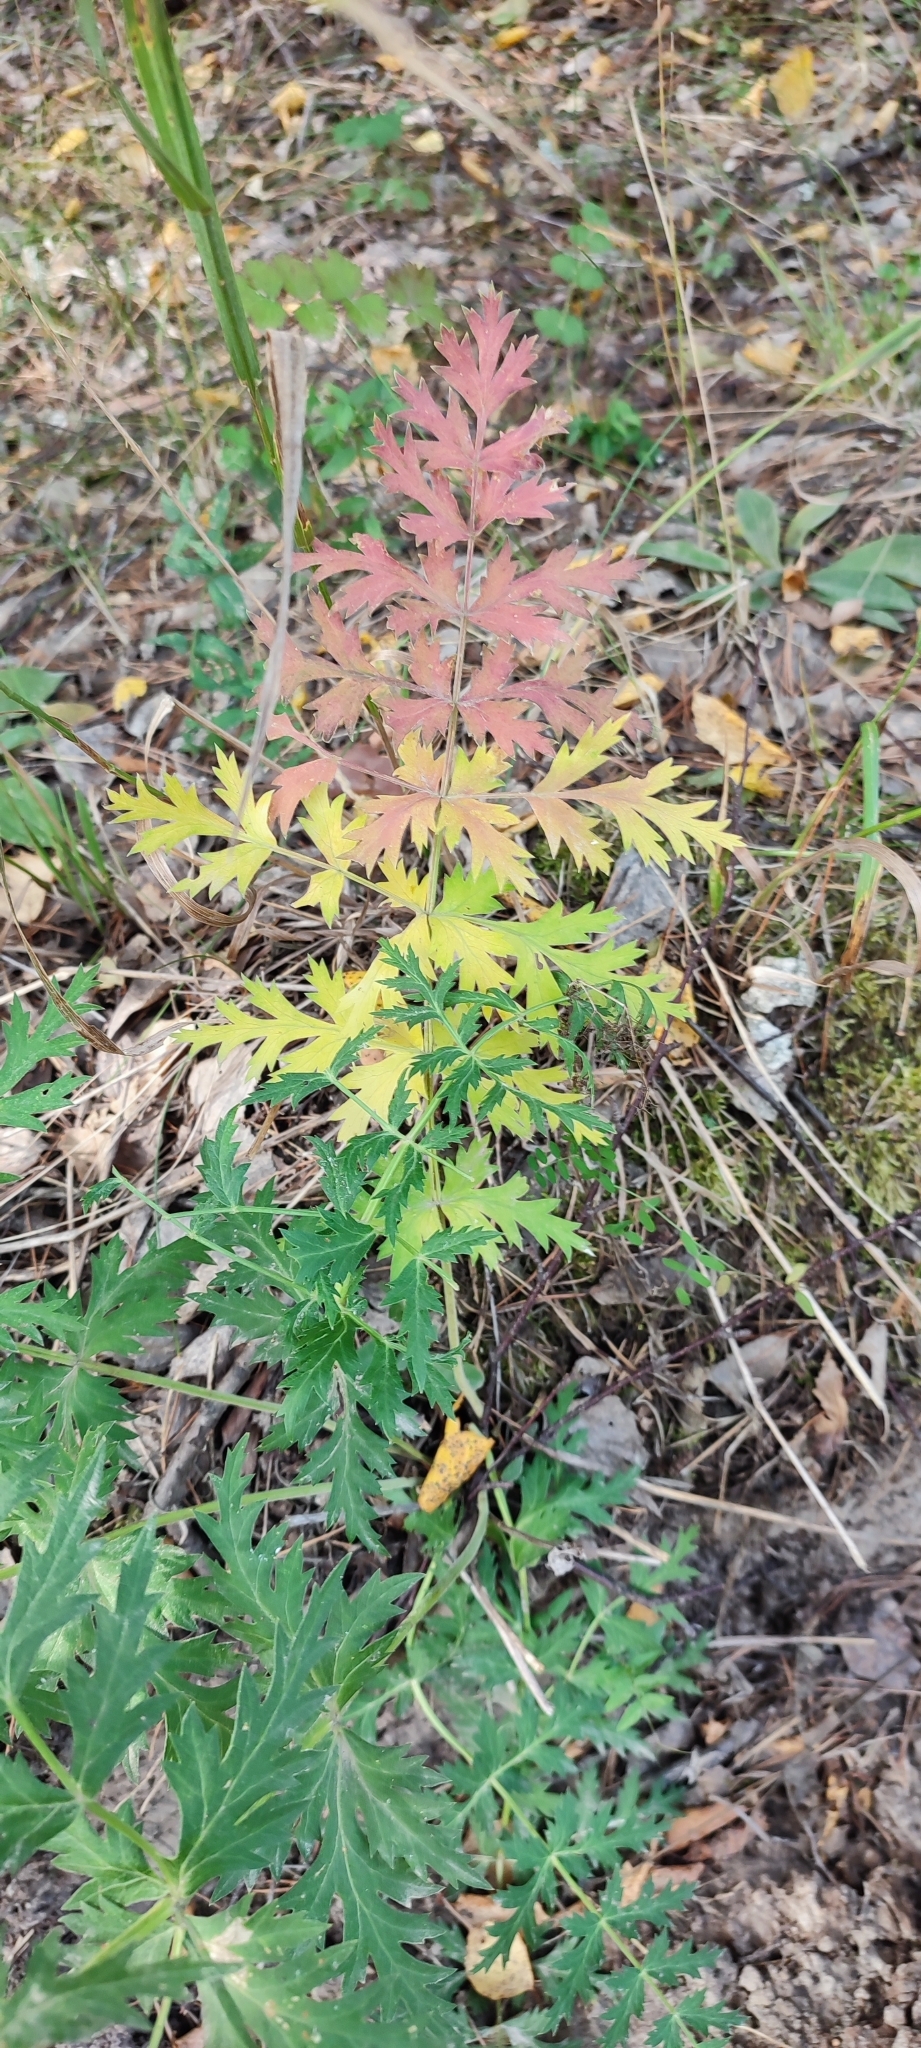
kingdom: Plantae
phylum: Tracheophyta
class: Magnoliopsida
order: Apiales
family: Apiaceae
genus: Seseli
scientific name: Seseli libanotis
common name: Mooncarrot
